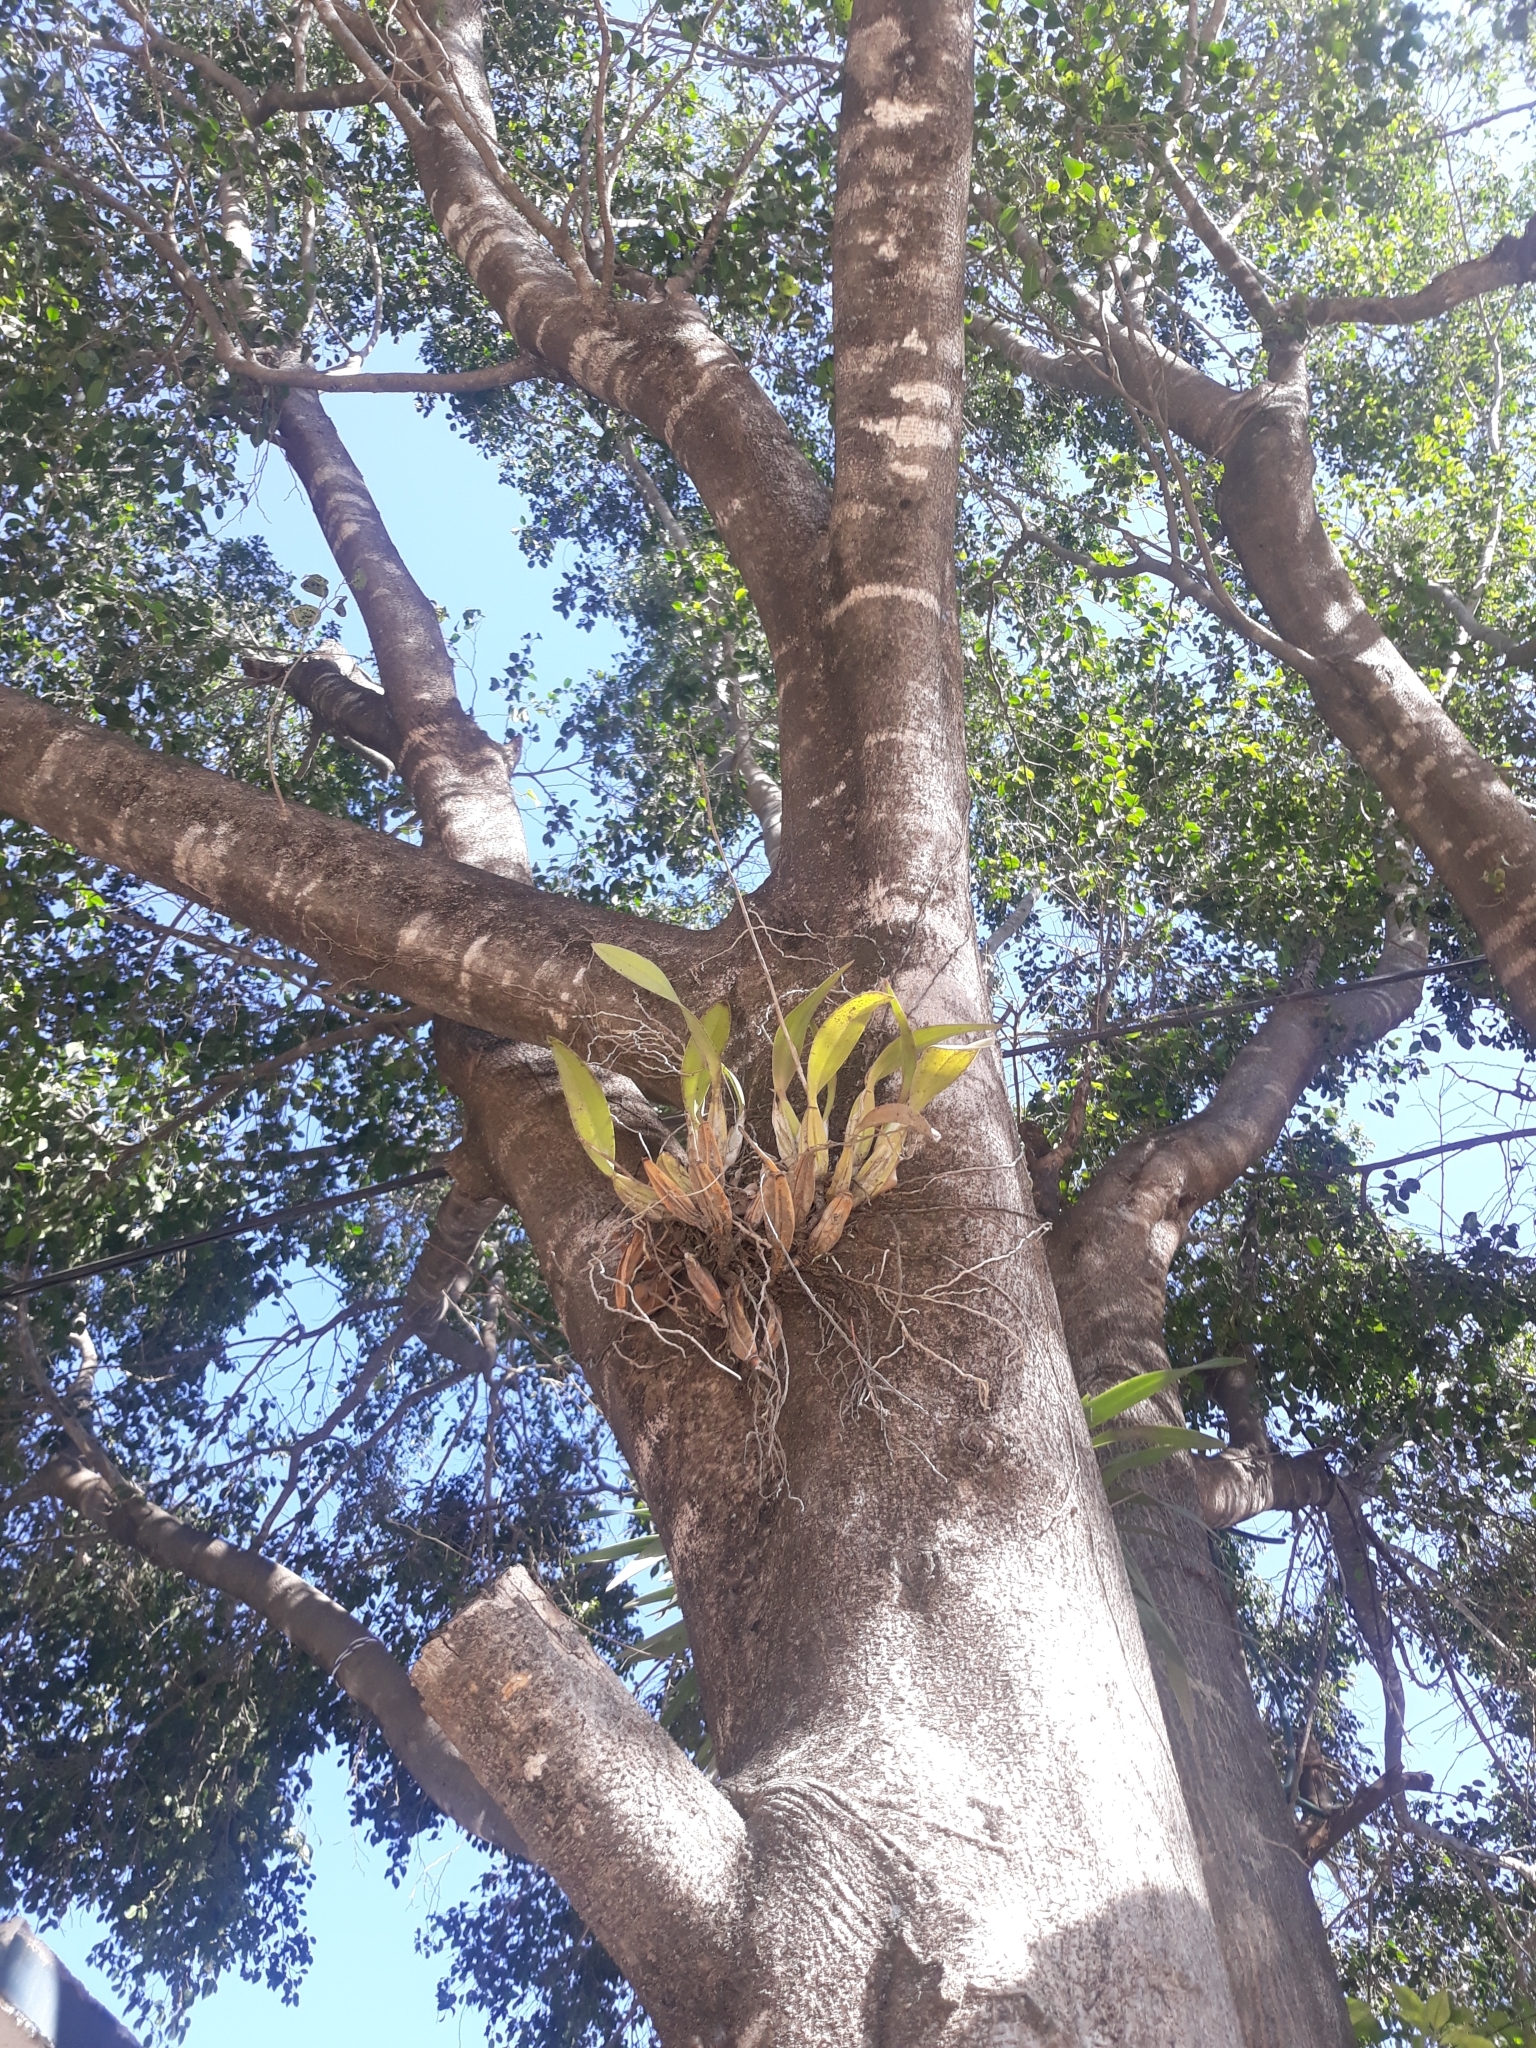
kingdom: Plantae
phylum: Tracheophyta
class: Liliopsida
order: Asparagales
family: Orchidaceae
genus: Laelia
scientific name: Laelia anceps
